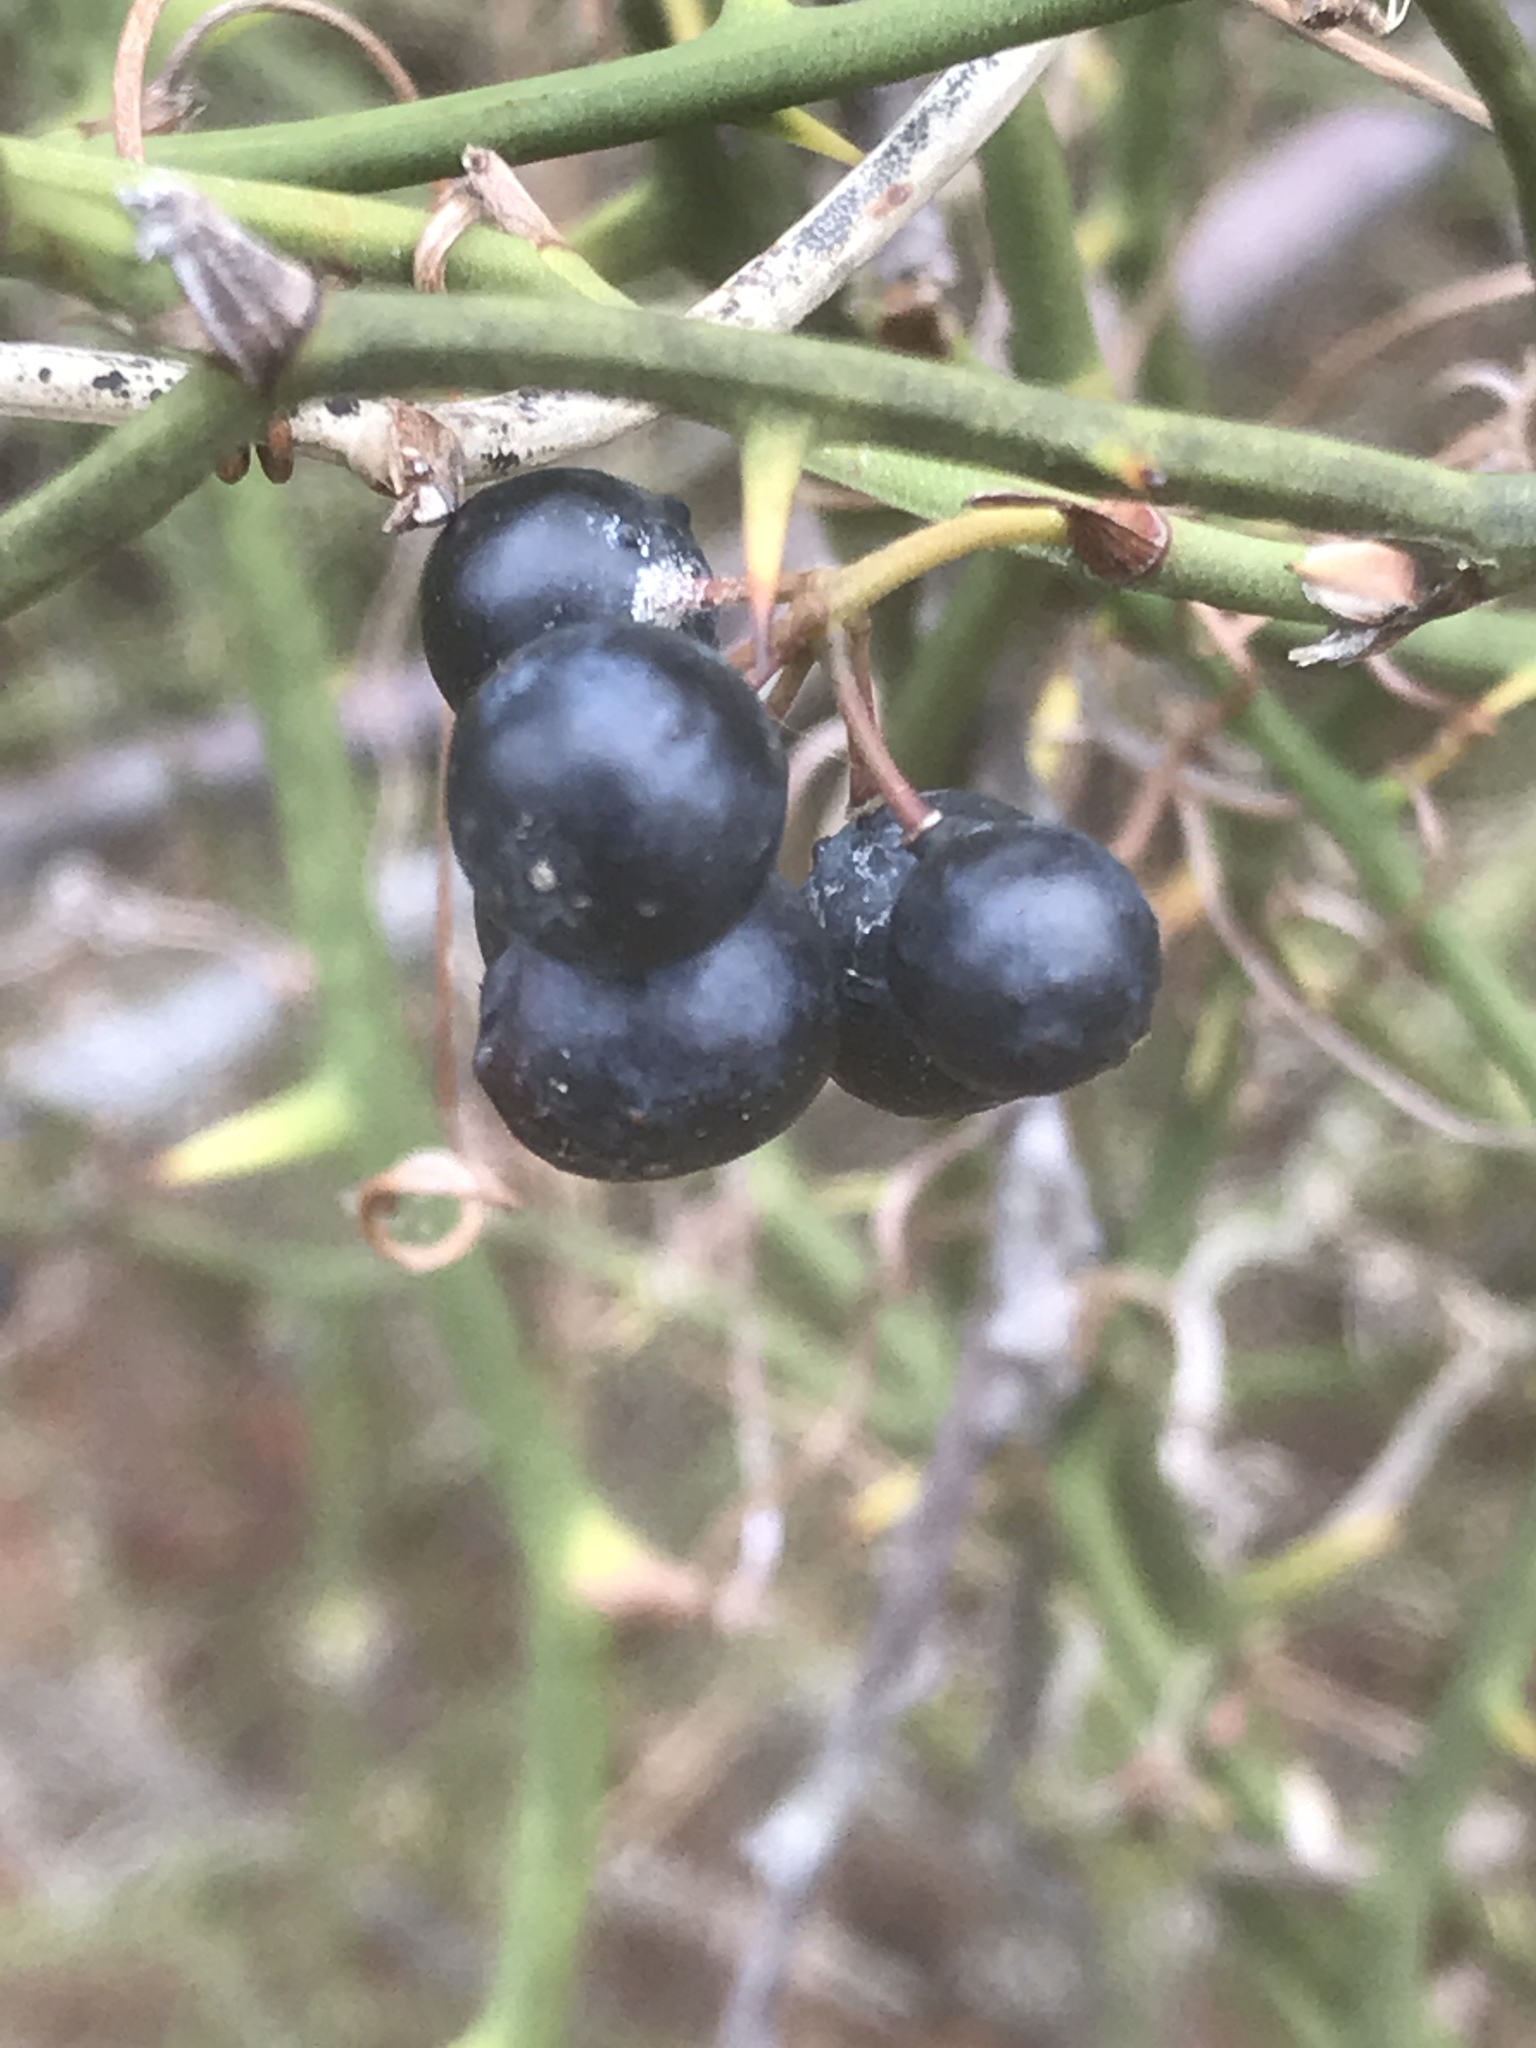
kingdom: Plantae
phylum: Tracheophyta
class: Liliopsida
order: Liliales
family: Smilacaceae
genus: Smilax
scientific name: Smilax rotundifolia
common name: Bullbriar
